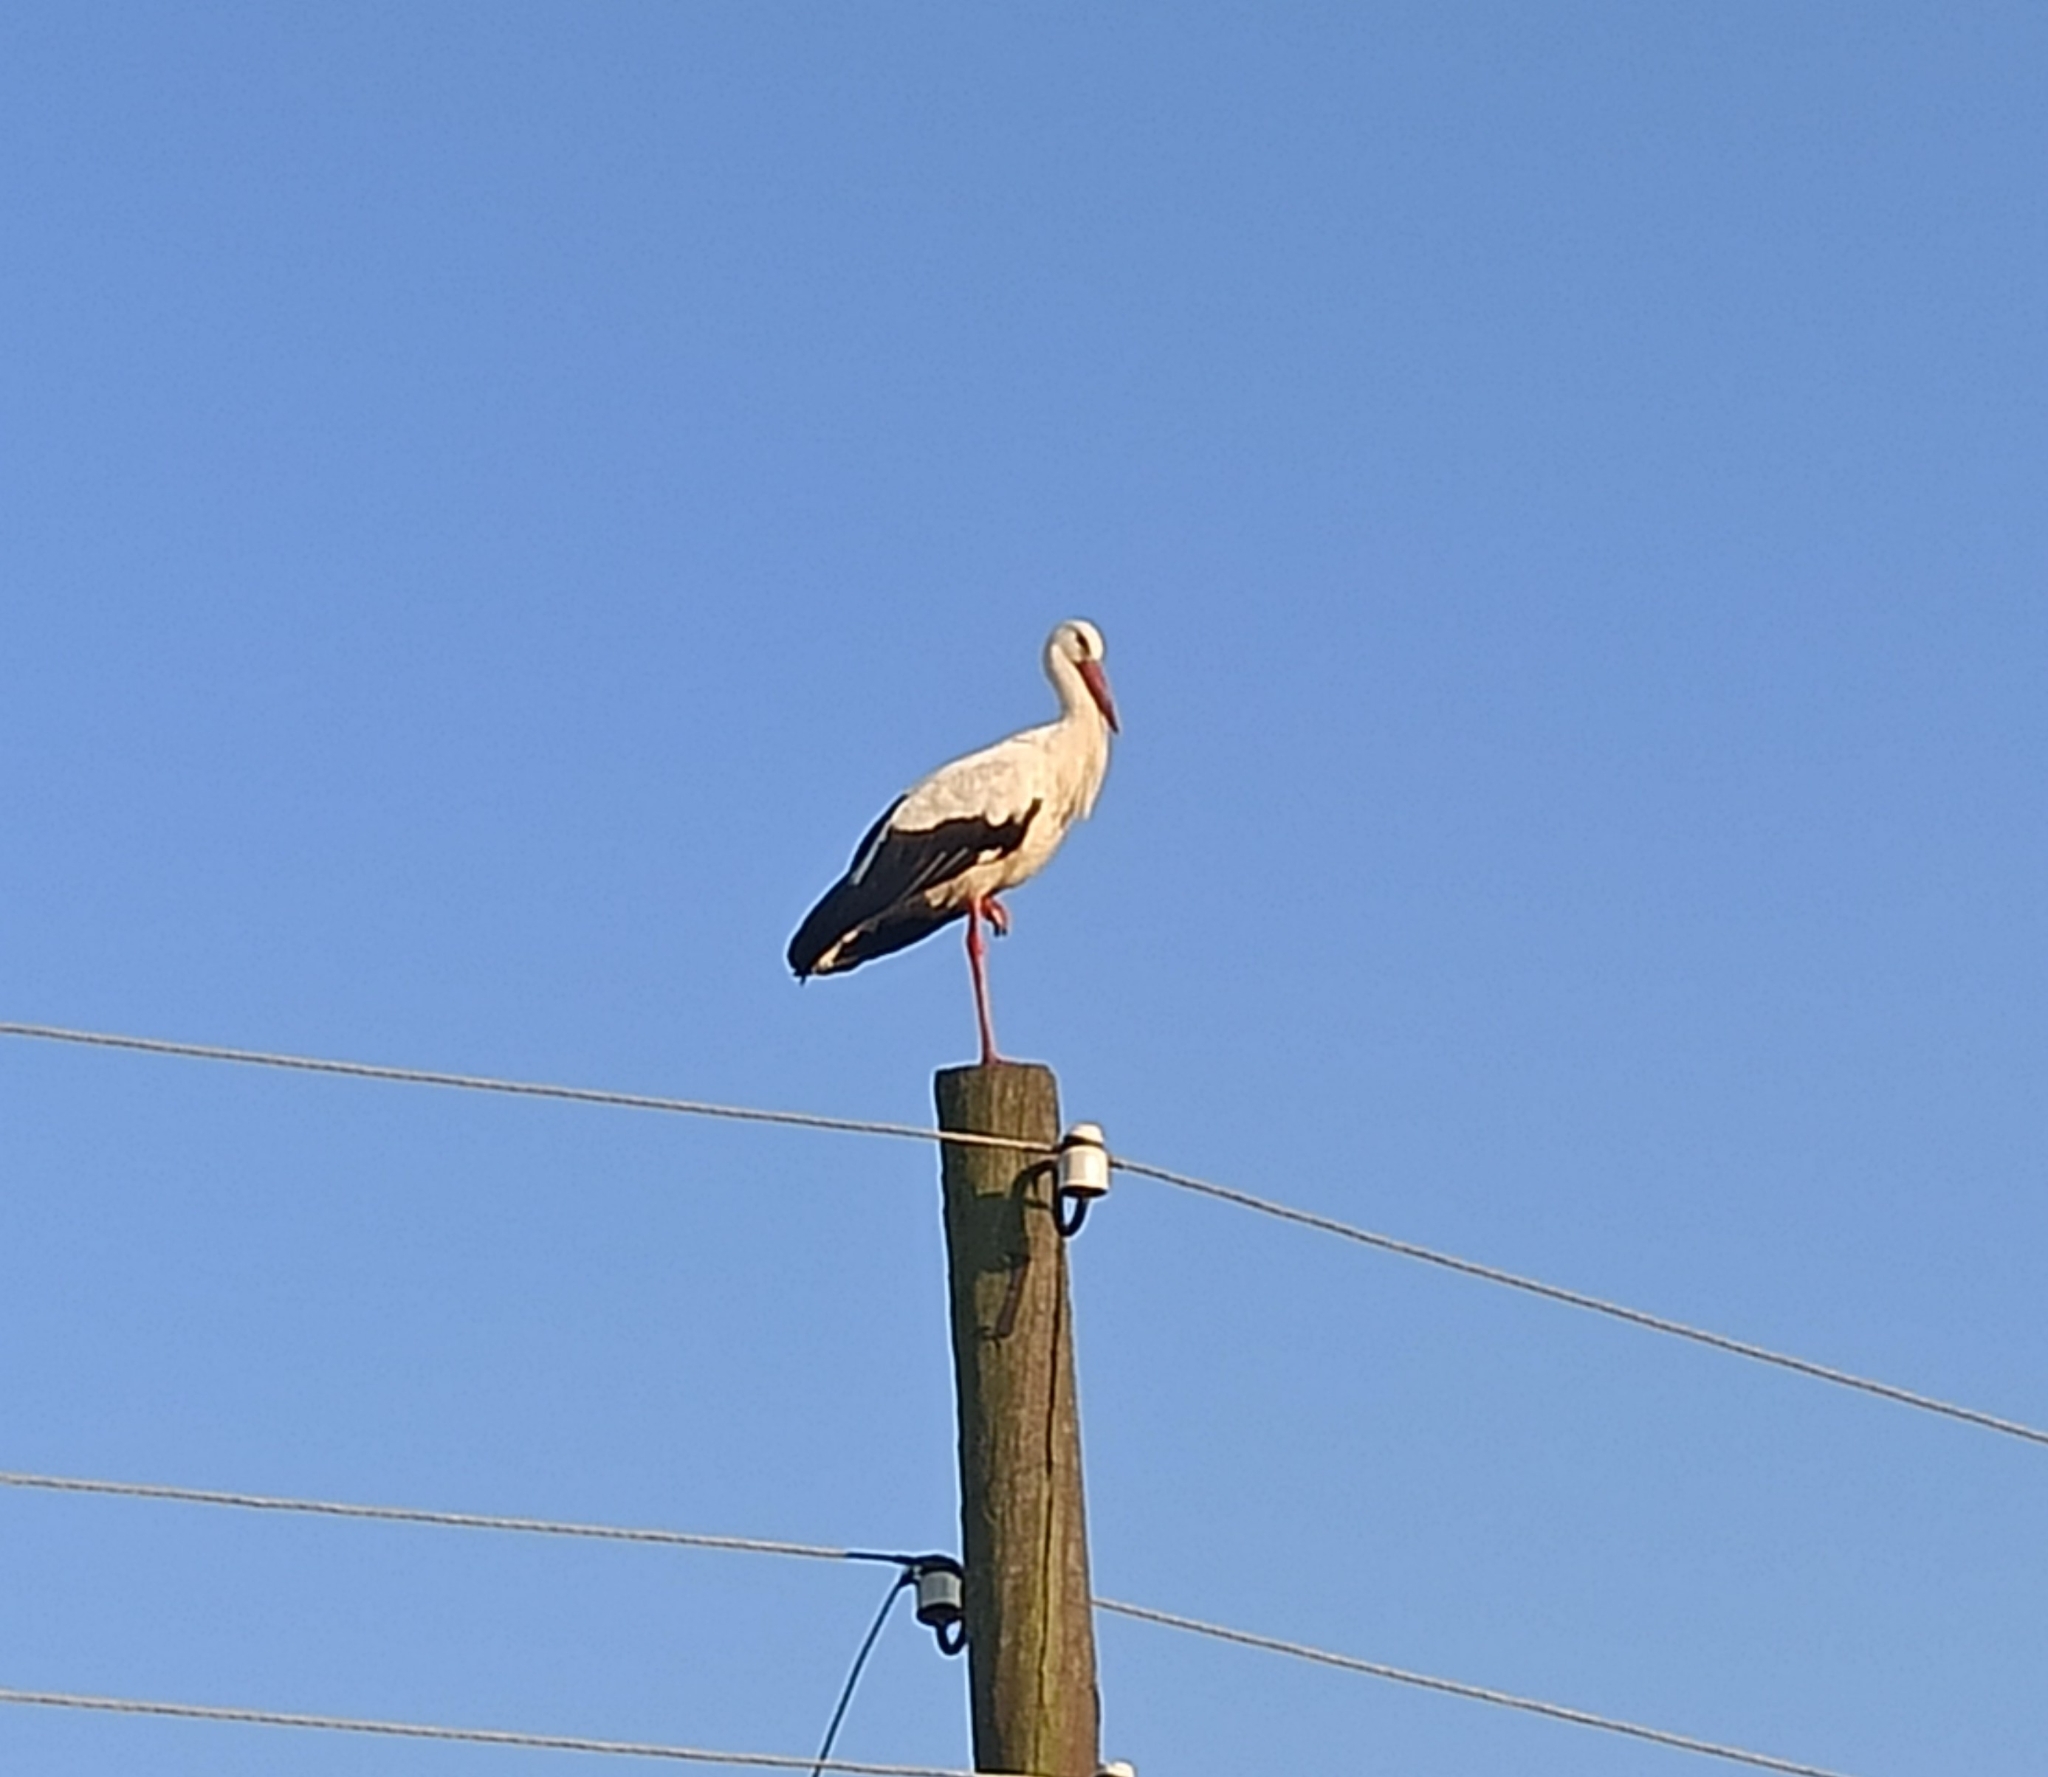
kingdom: Animalia
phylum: Chordata
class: Aves
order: Ciconiiformes
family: Ciconiidae
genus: Ciconia
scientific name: Ciconia ciconia
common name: White stork
